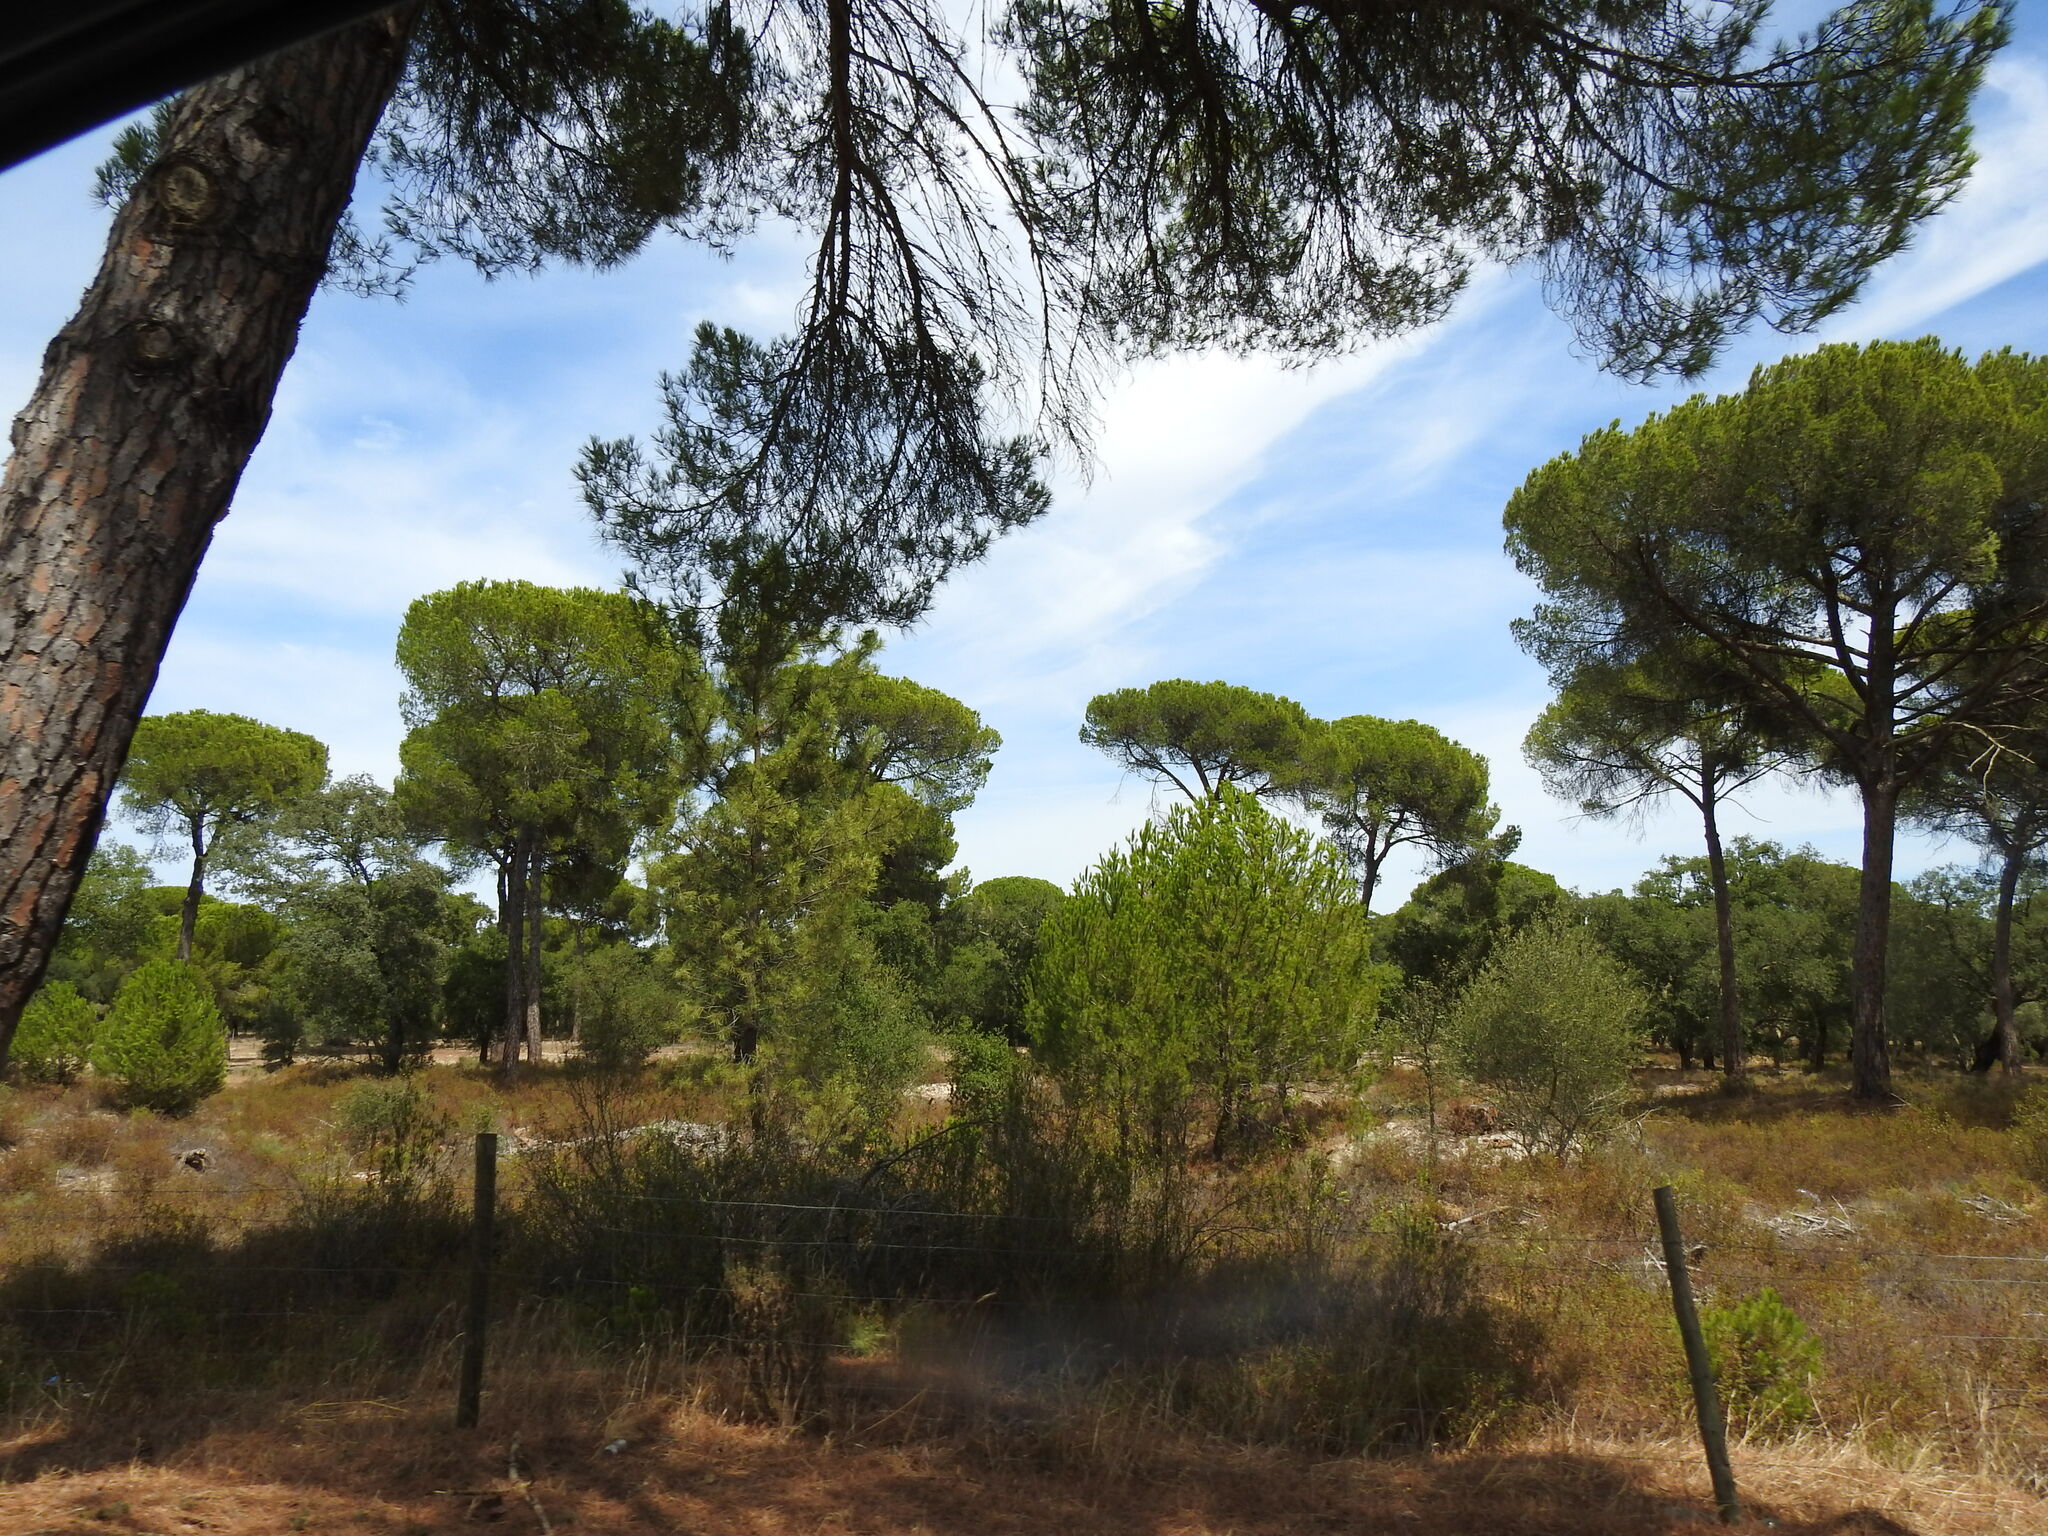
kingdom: Plantae
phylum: Tracheophyta
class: Pinopsida
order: Pinales
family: Pinaceae
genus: Pinus
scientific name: Pinus pinea
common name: Italian stone pine
